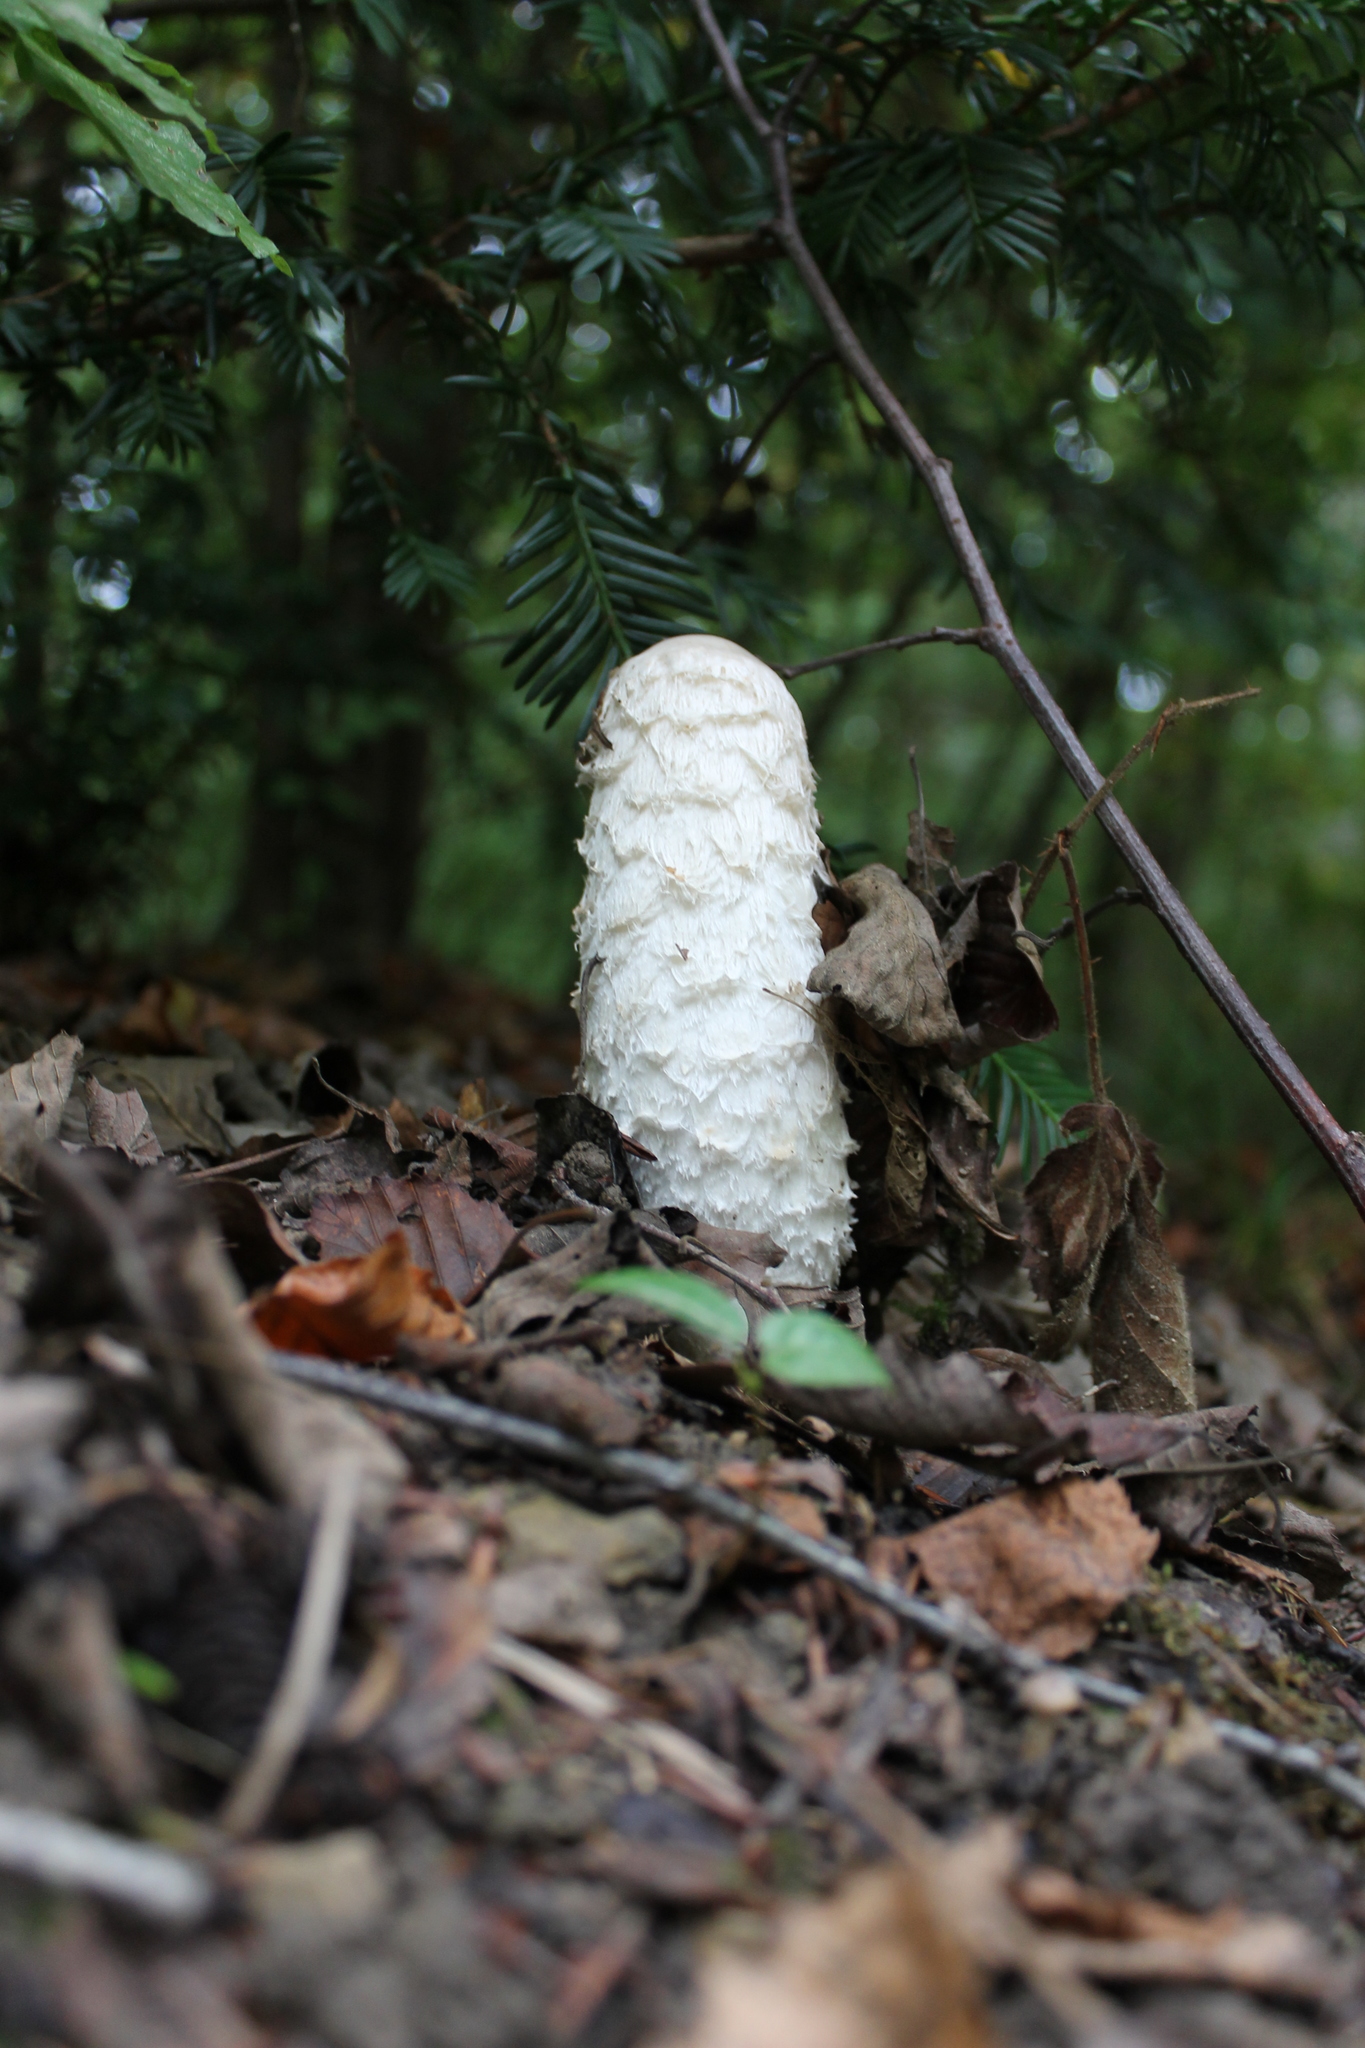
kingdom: Fungi
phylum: Basidiomycota
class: Agaricomycetes
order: Agaricales
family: Agaricaceae
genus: Coprinus
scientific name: Coprinus comatus
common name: Lawyer's wig
